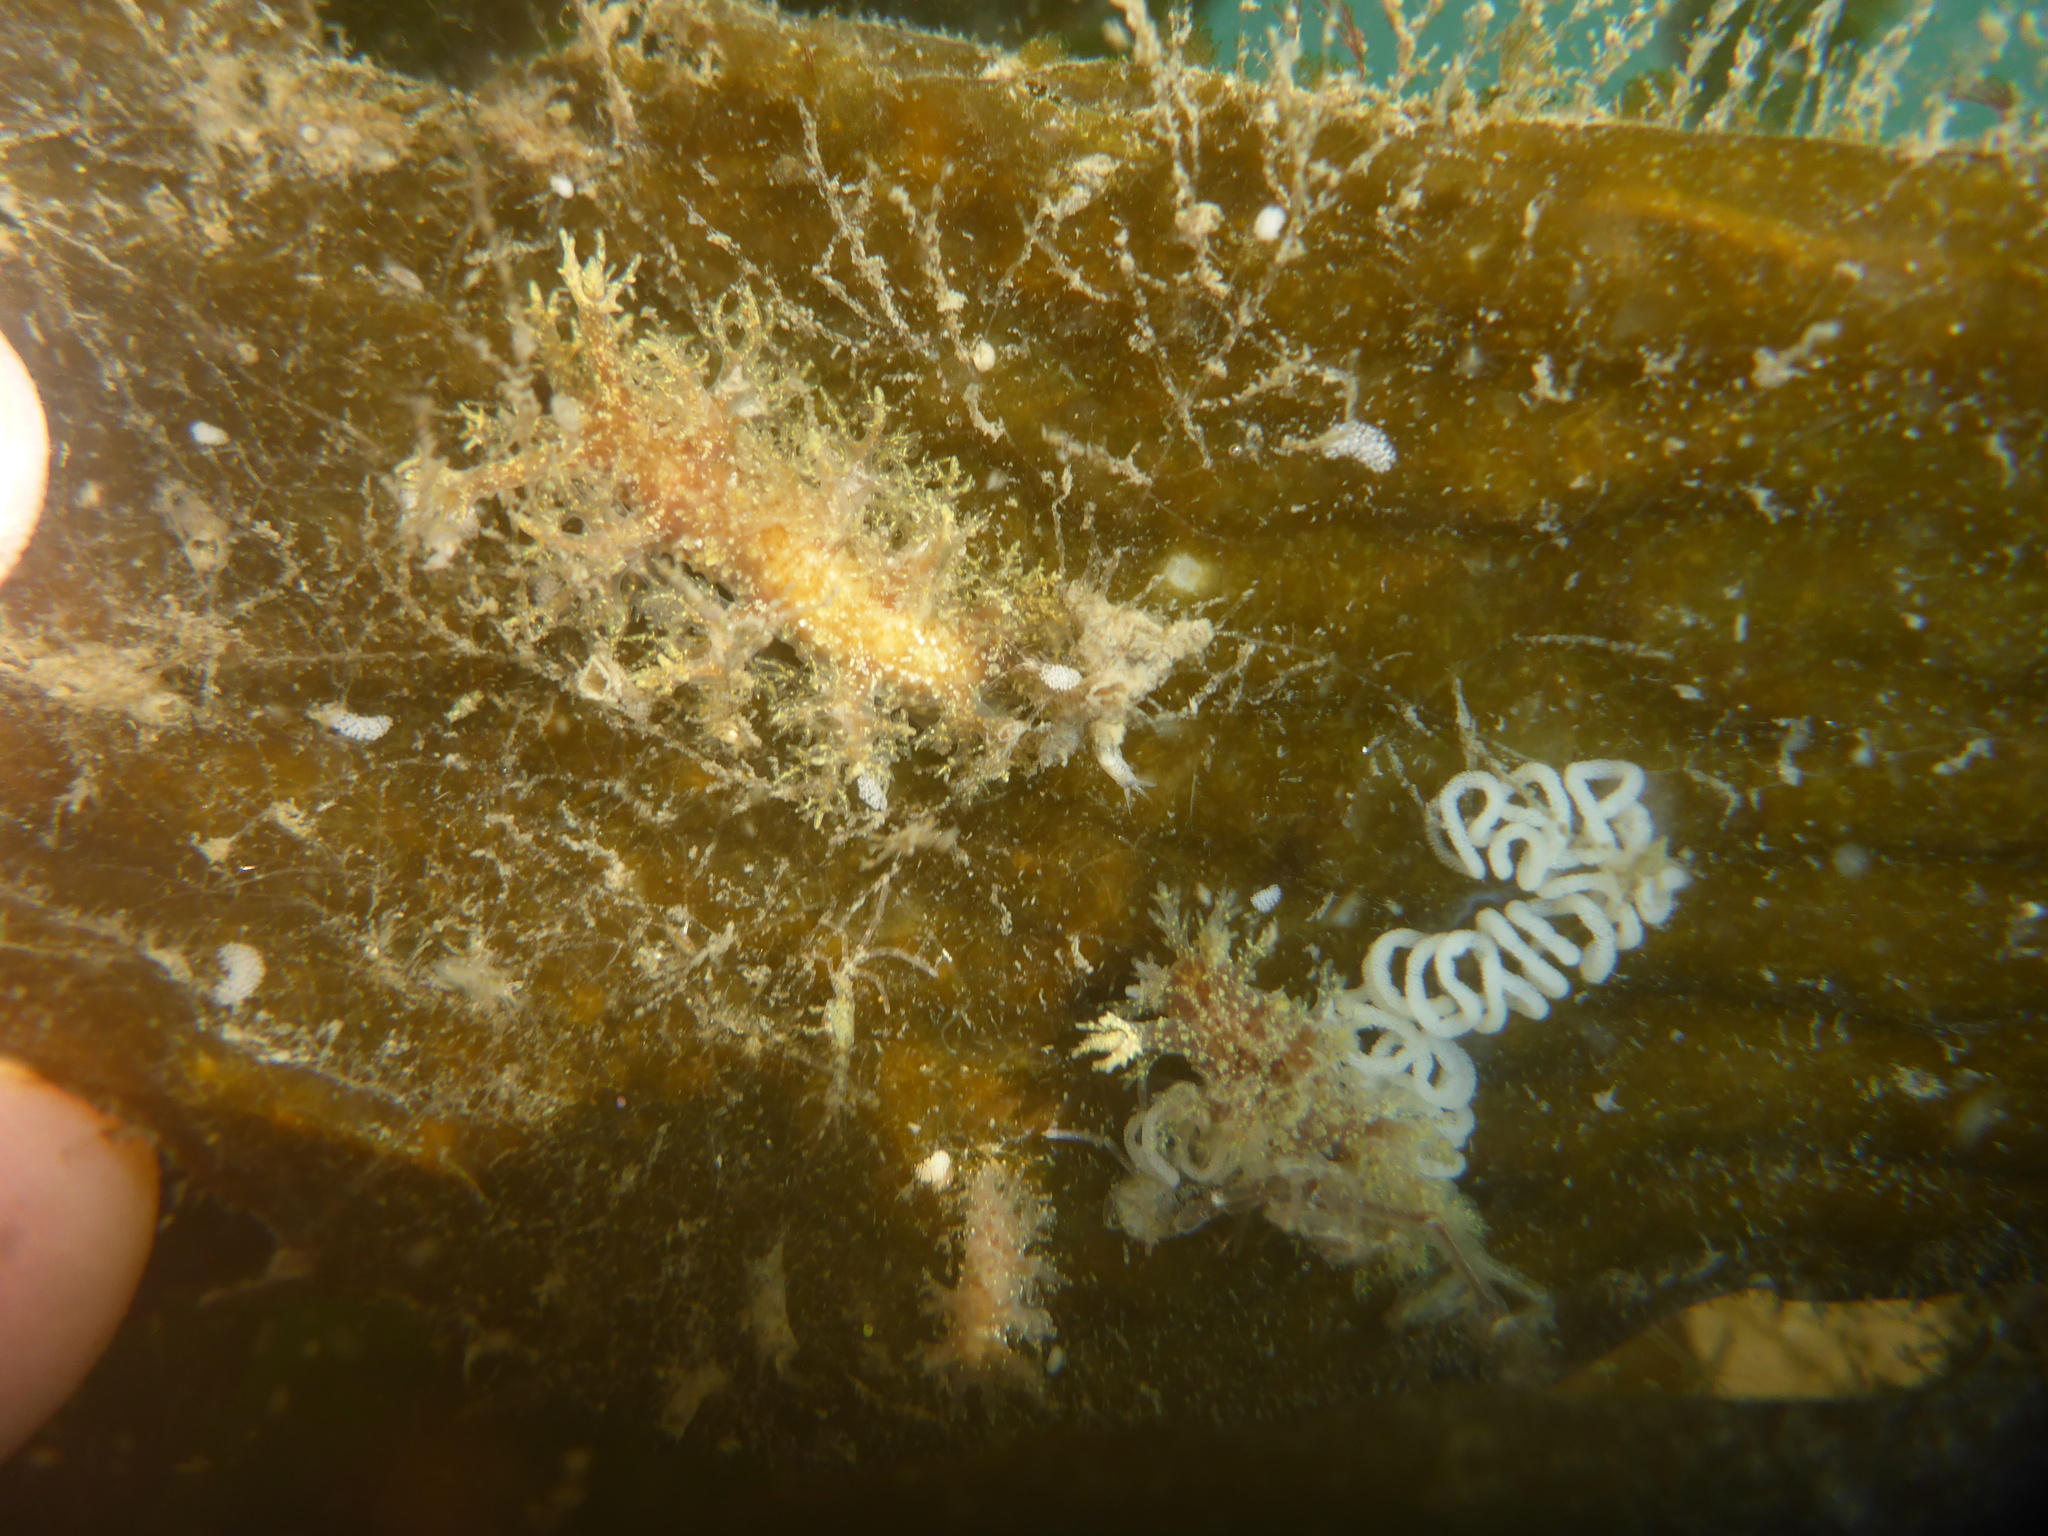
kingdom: Animalia
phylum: Mollusca
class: Gastropoda
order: Nudibranchia
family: Dendronotidae
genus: Dendronotus
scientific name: Dendronotus venustus
